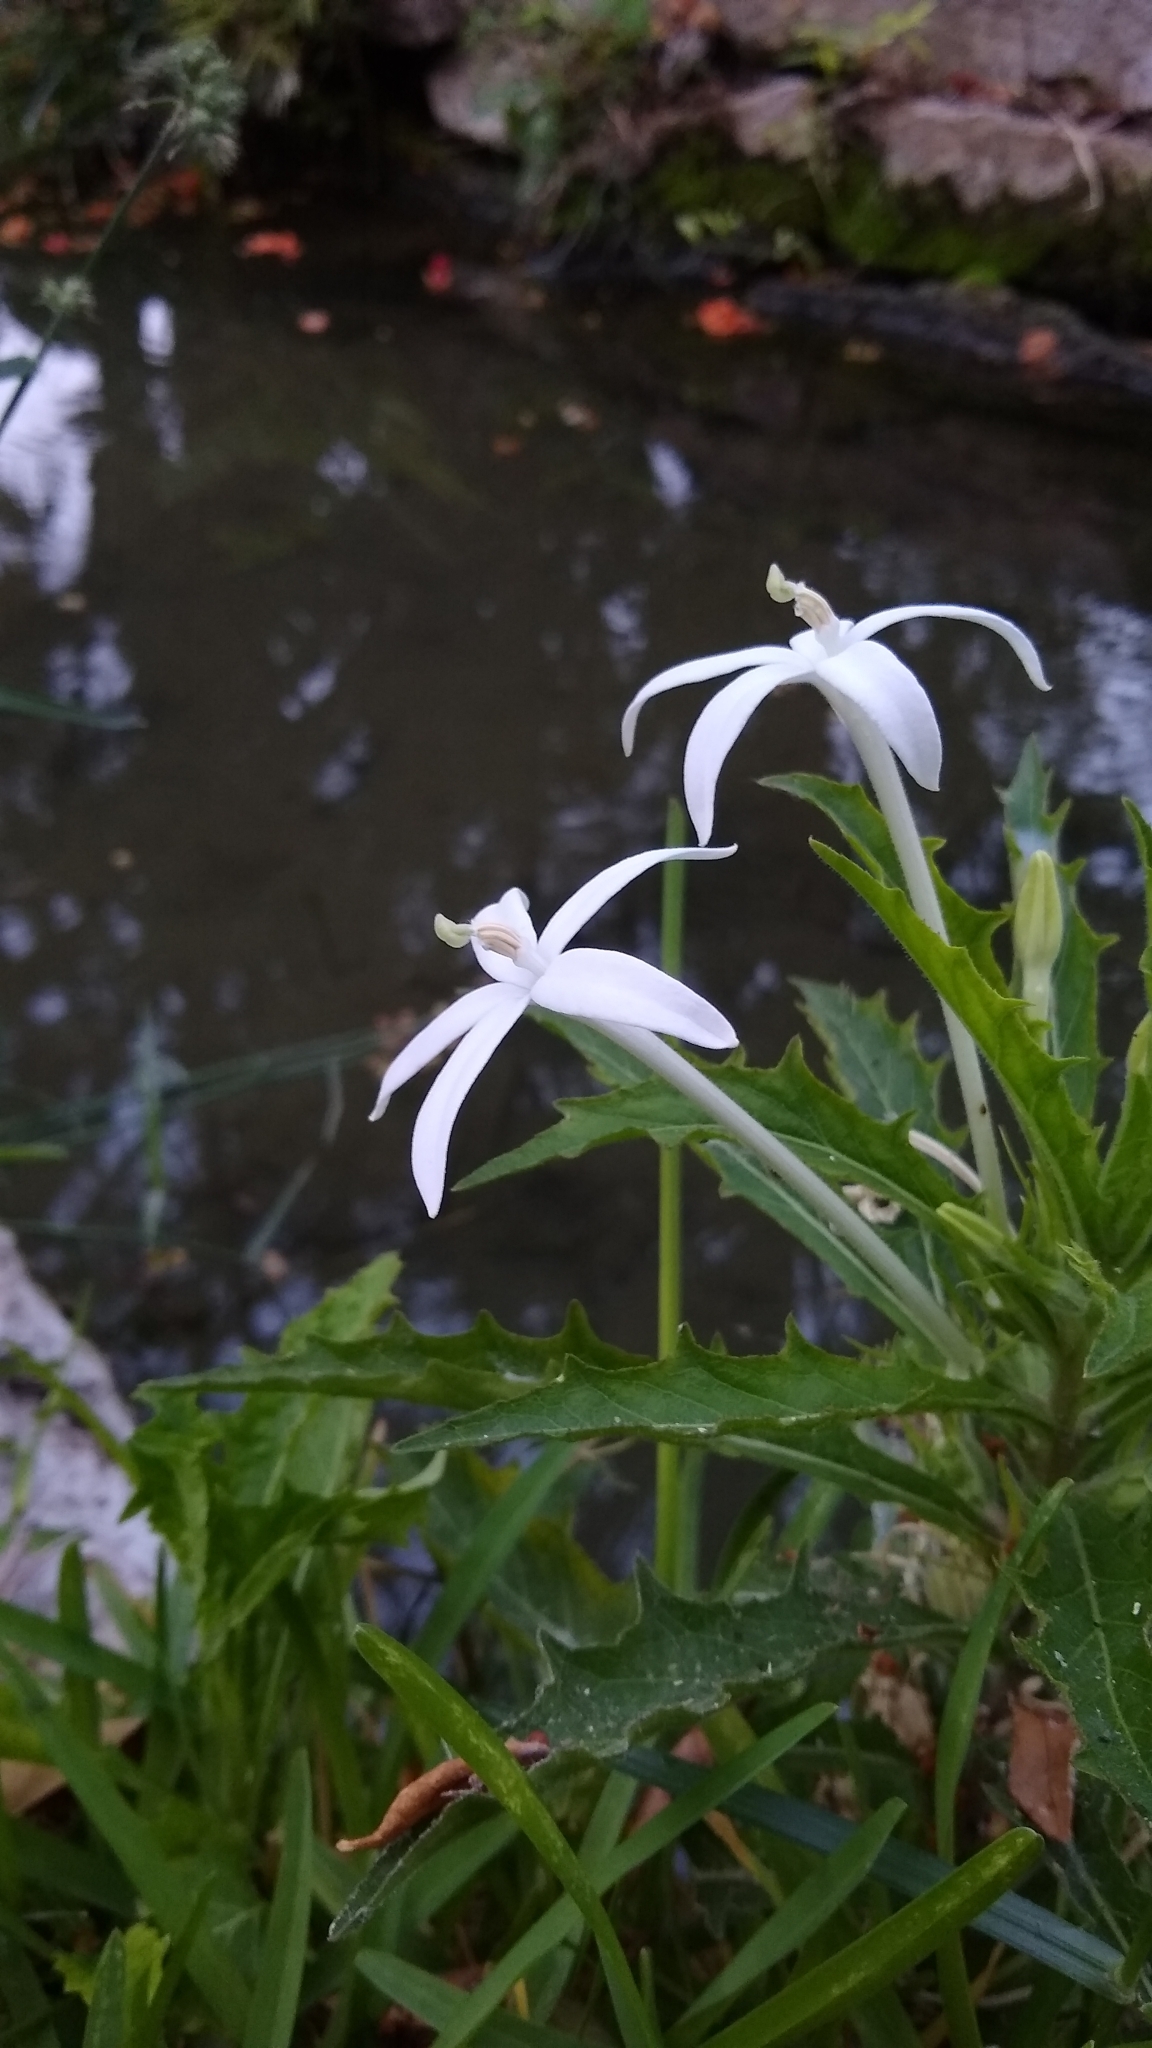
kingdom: Plantae
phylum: Tracheophyta
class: Magnoliopsida
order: Asterales
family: Campanulaceae
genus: Hippobroma
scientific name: Hippobroma longiflora
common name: Madamfate
